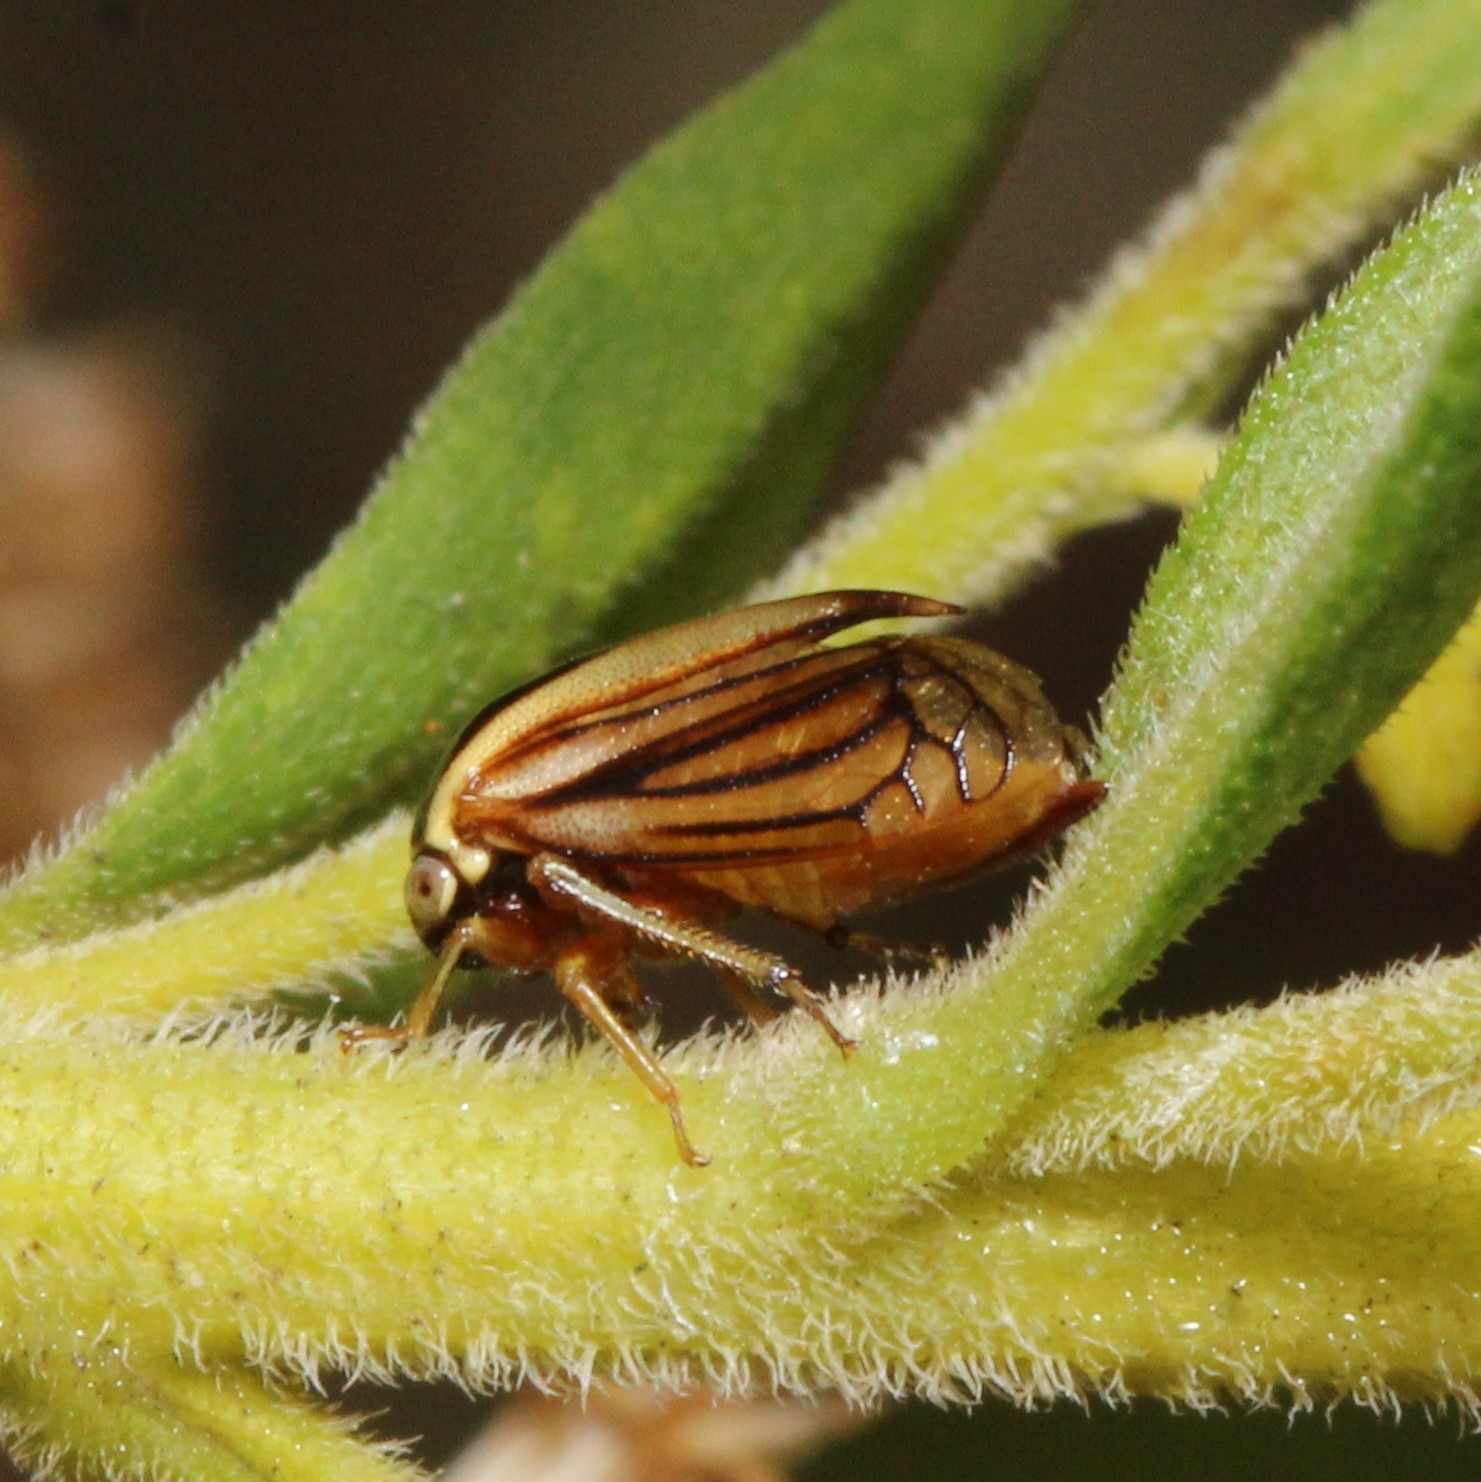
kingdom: Animalia
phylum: Arthropoda
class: Insecta
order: Hemiptera
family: Membracidae
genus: Acutalis
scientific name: Acutalis tartarea
